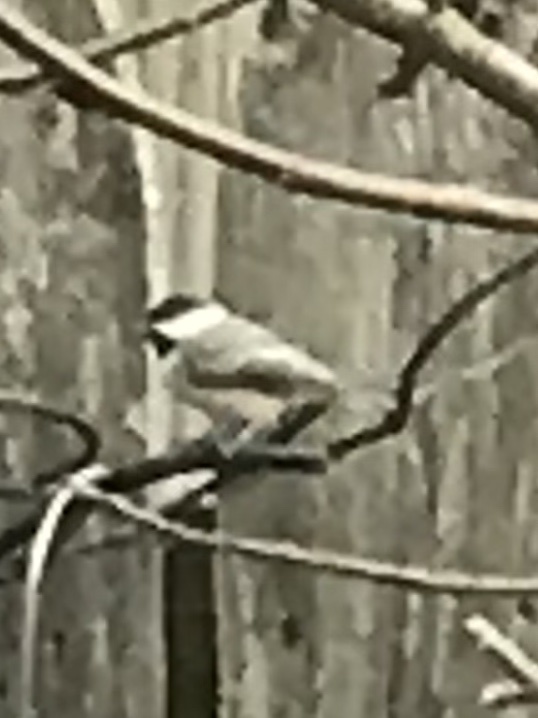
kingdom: Animalia
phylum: Chordata
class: Aves
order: Passeriformes
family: Paridae
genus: Poecile
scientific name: Poecile carolinensis
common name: Carolina chickadee
